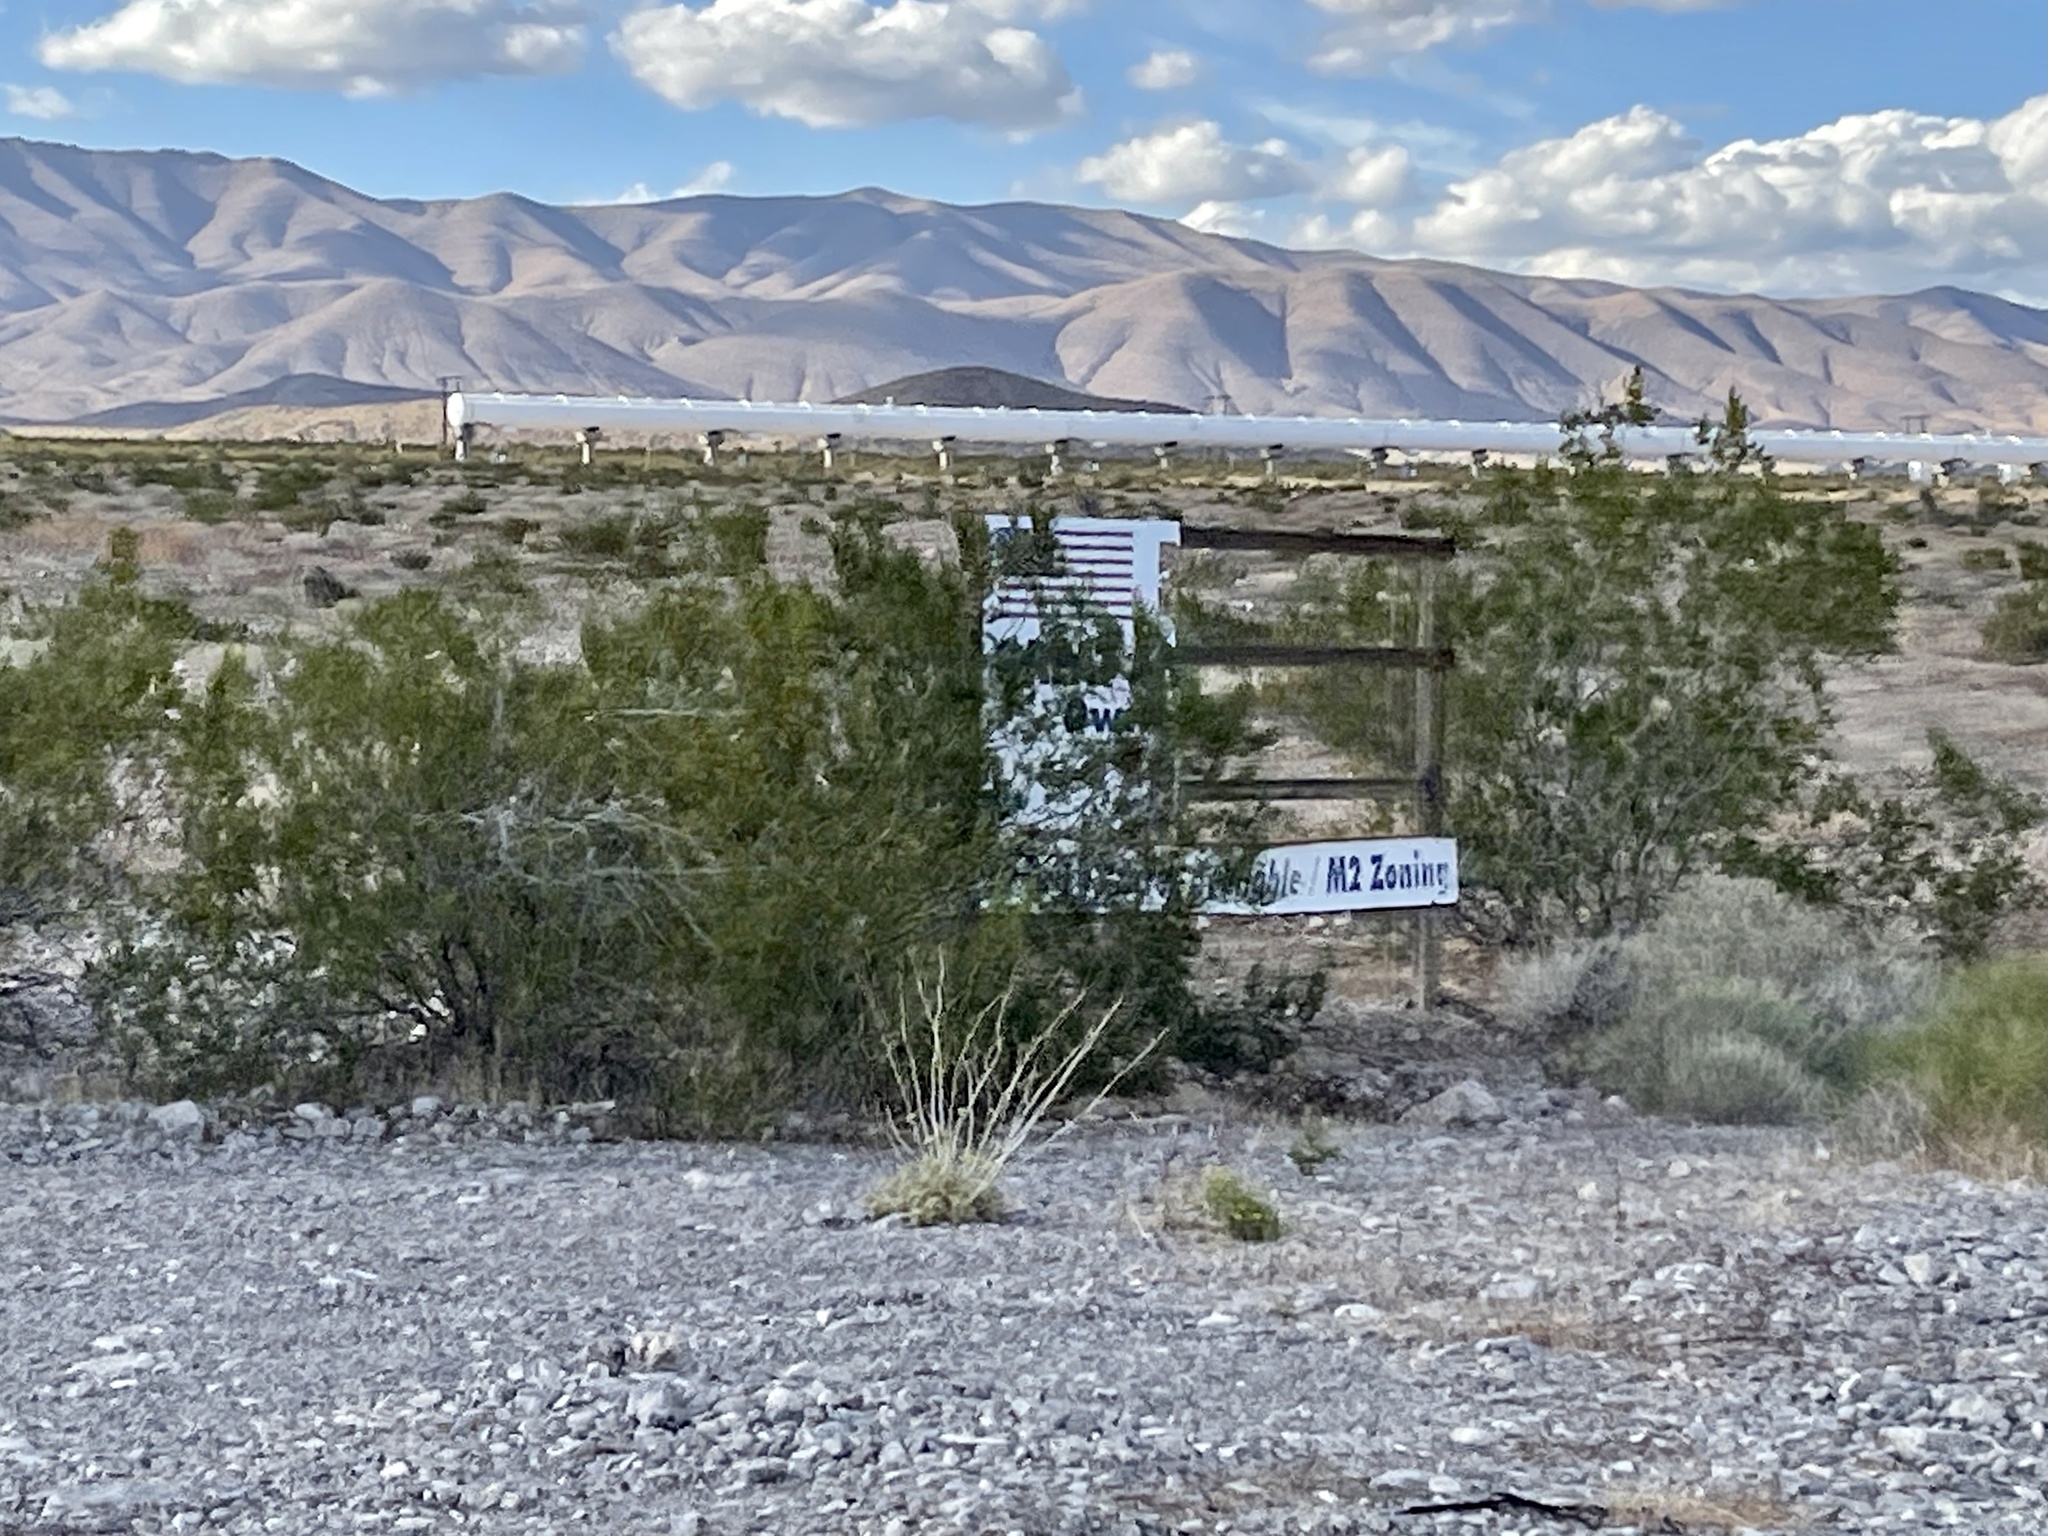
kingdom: Plantae
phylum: Tracheophyta
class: Magnoliopsida
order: Zygophyllales
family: Zygophyllaceae
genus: Larrea
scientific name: Larrea tridentata
